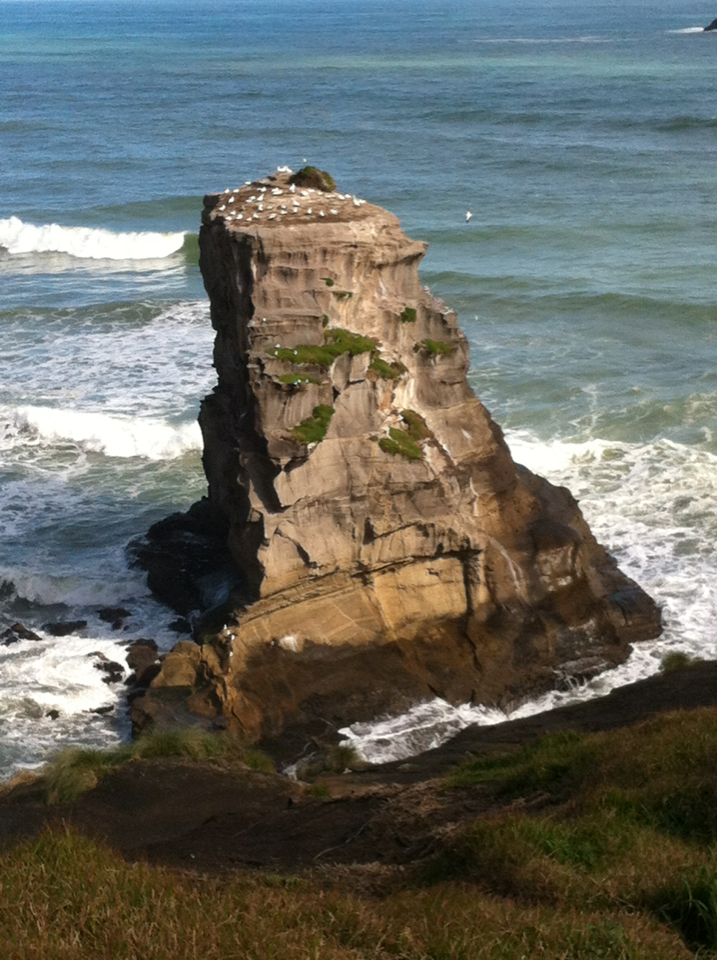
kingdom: Animalia
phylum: Chordata
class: Aves
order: Suliformes
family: Sulidae
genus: Morus
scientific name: Morus serrator
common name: Australasian gannet
